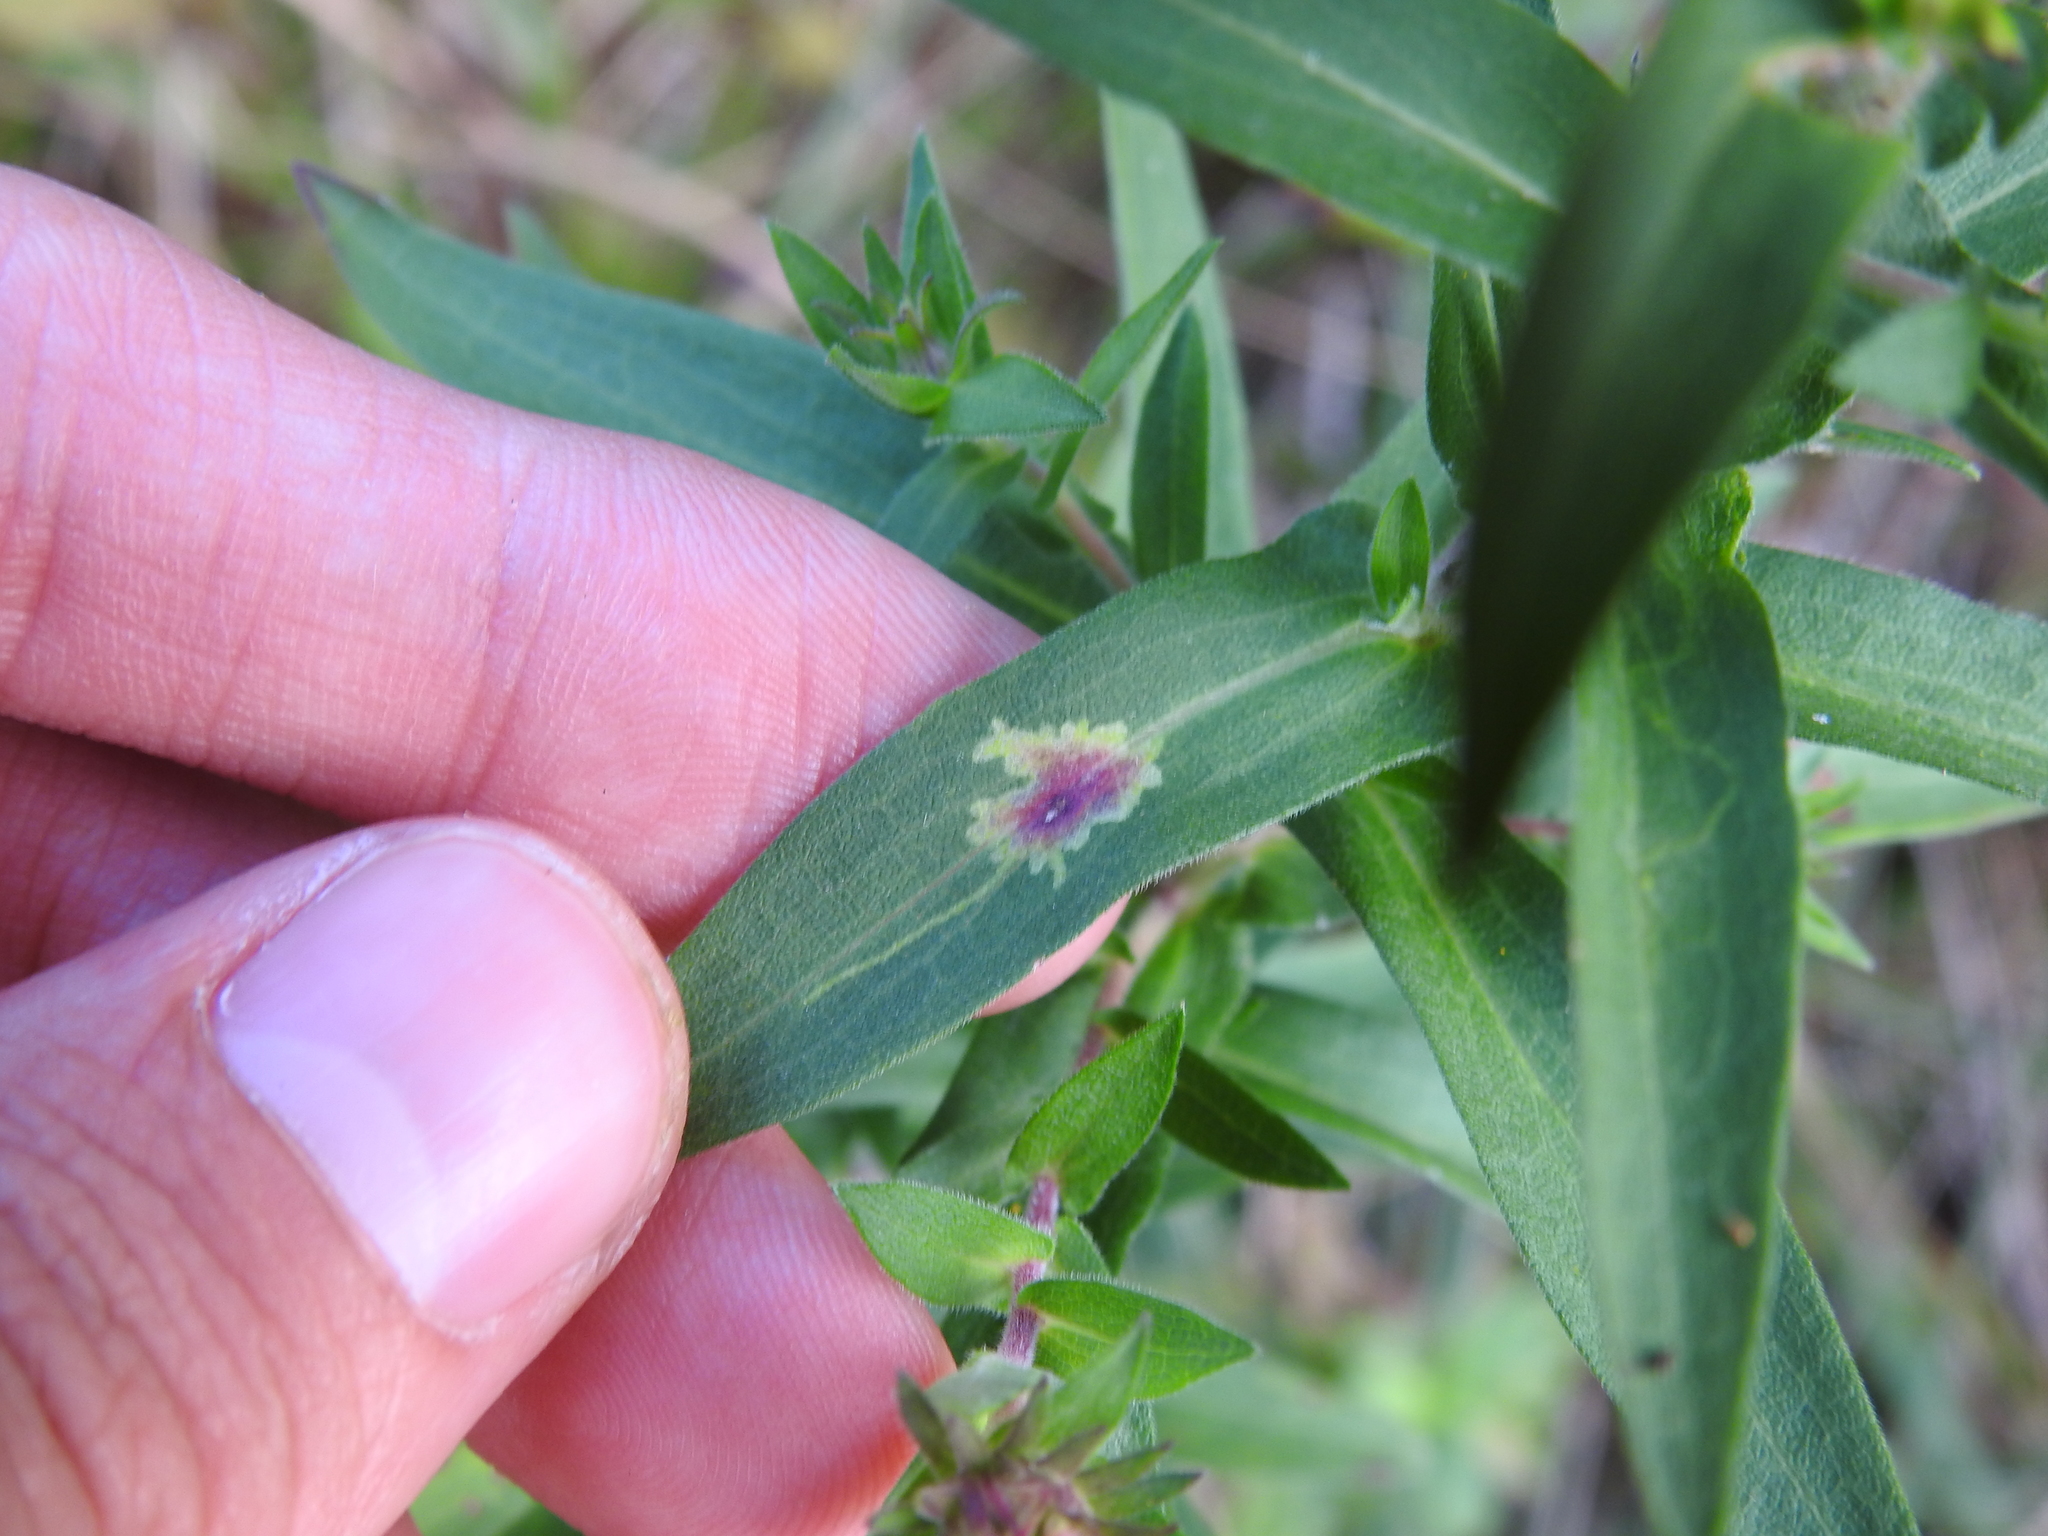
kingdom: Animalia
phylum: Arthropoda
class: Insecta
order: Diptera
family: Agromyzidae
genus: Calycomyza
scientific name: Calycomyza promissa
